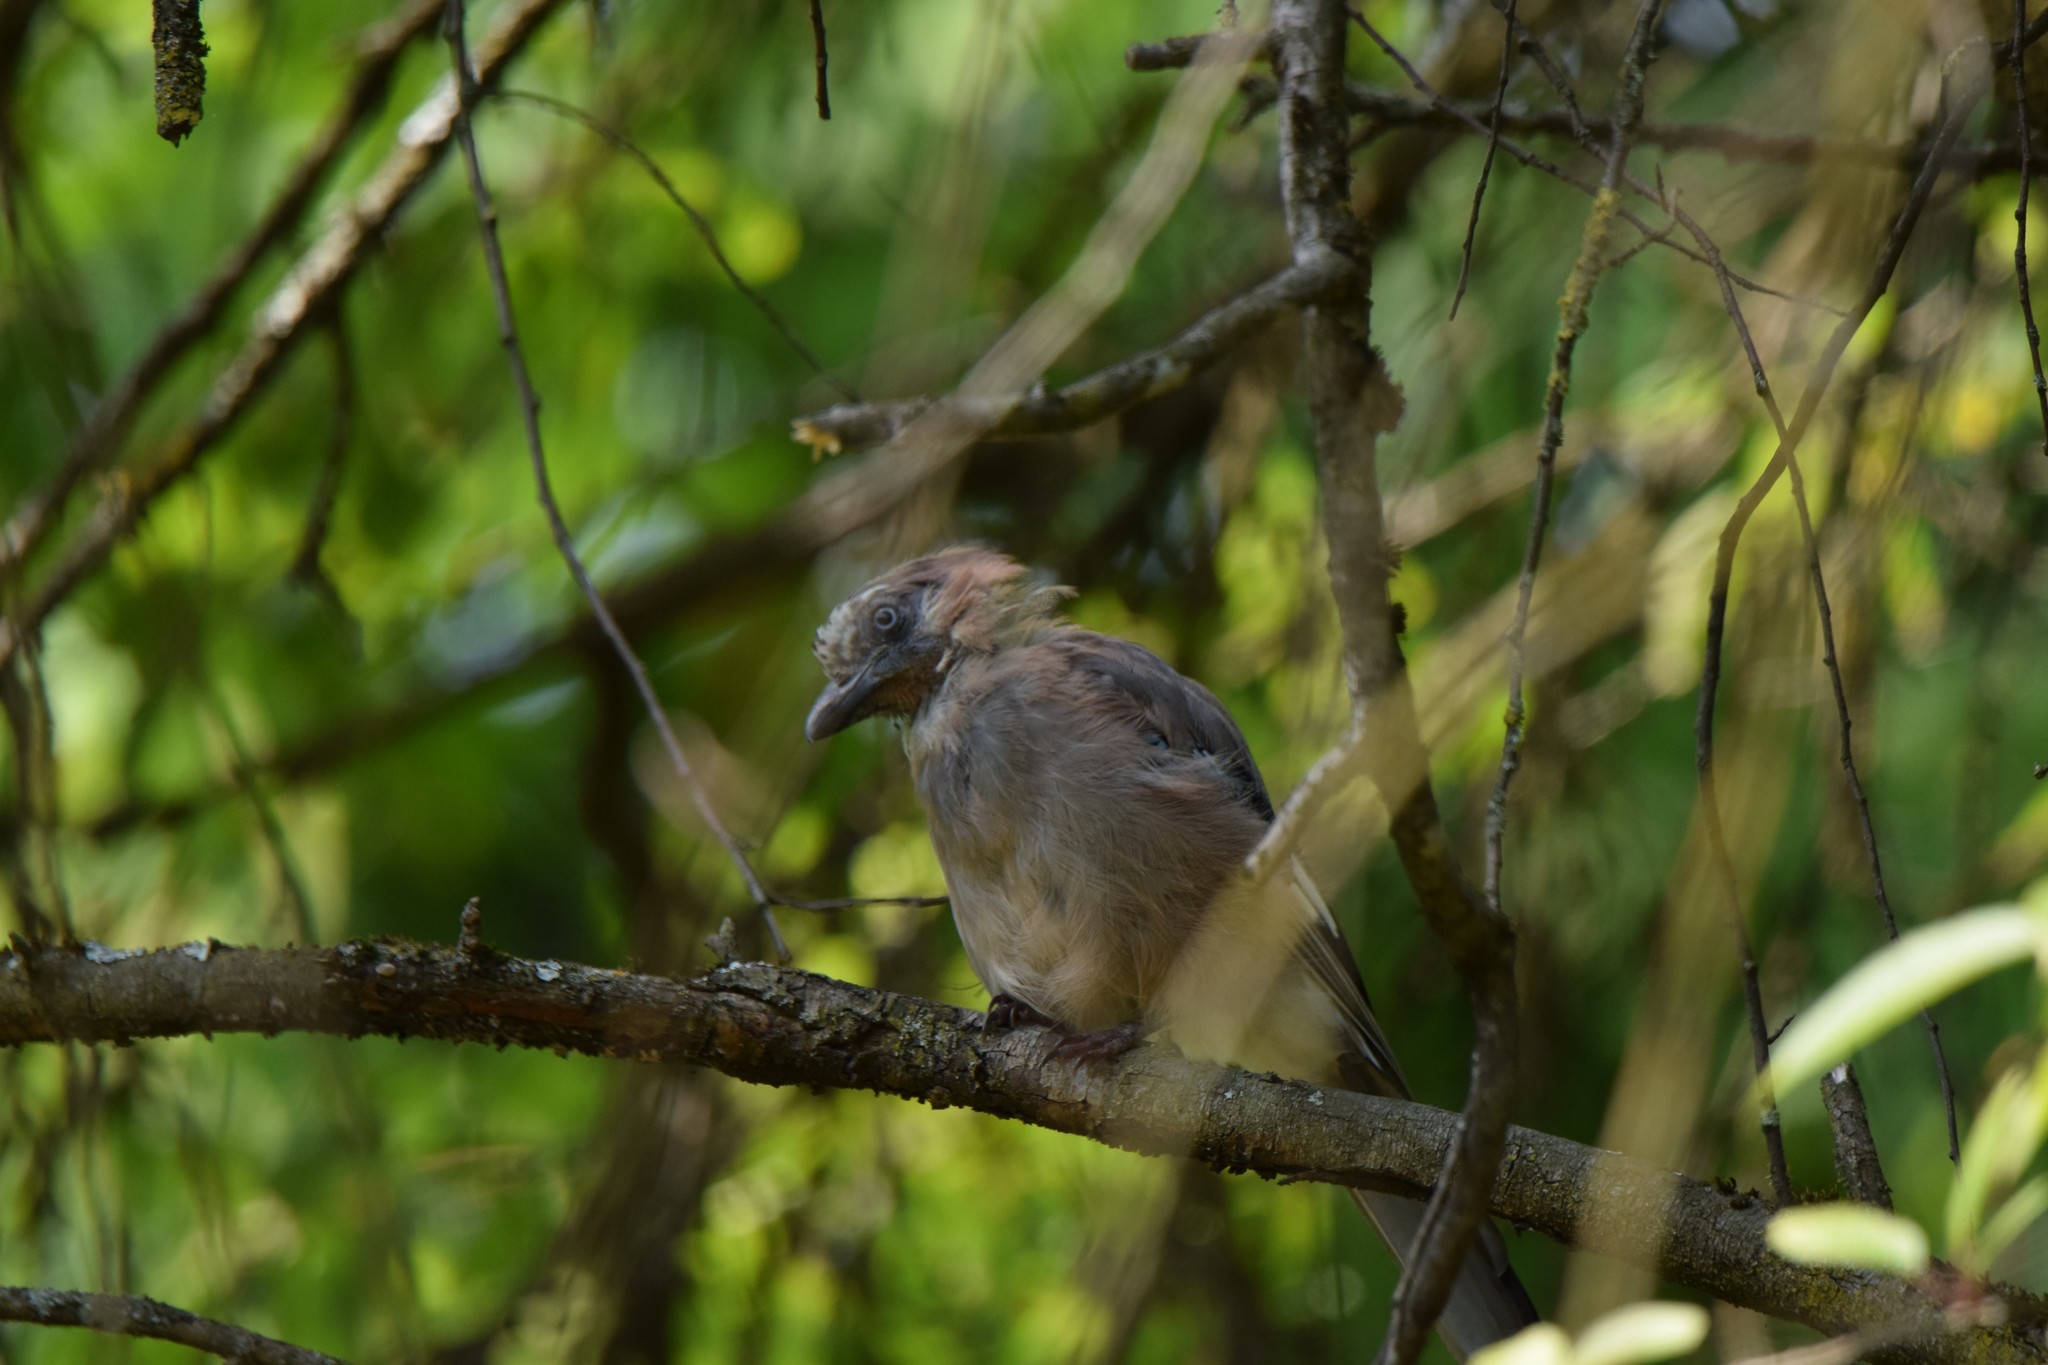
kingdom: Animalia
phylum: Chordata
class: Aves
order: Passeriformes
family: Corvidae
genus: Garrulus
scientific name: Garrulus glandarius
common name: Eurasian jay
